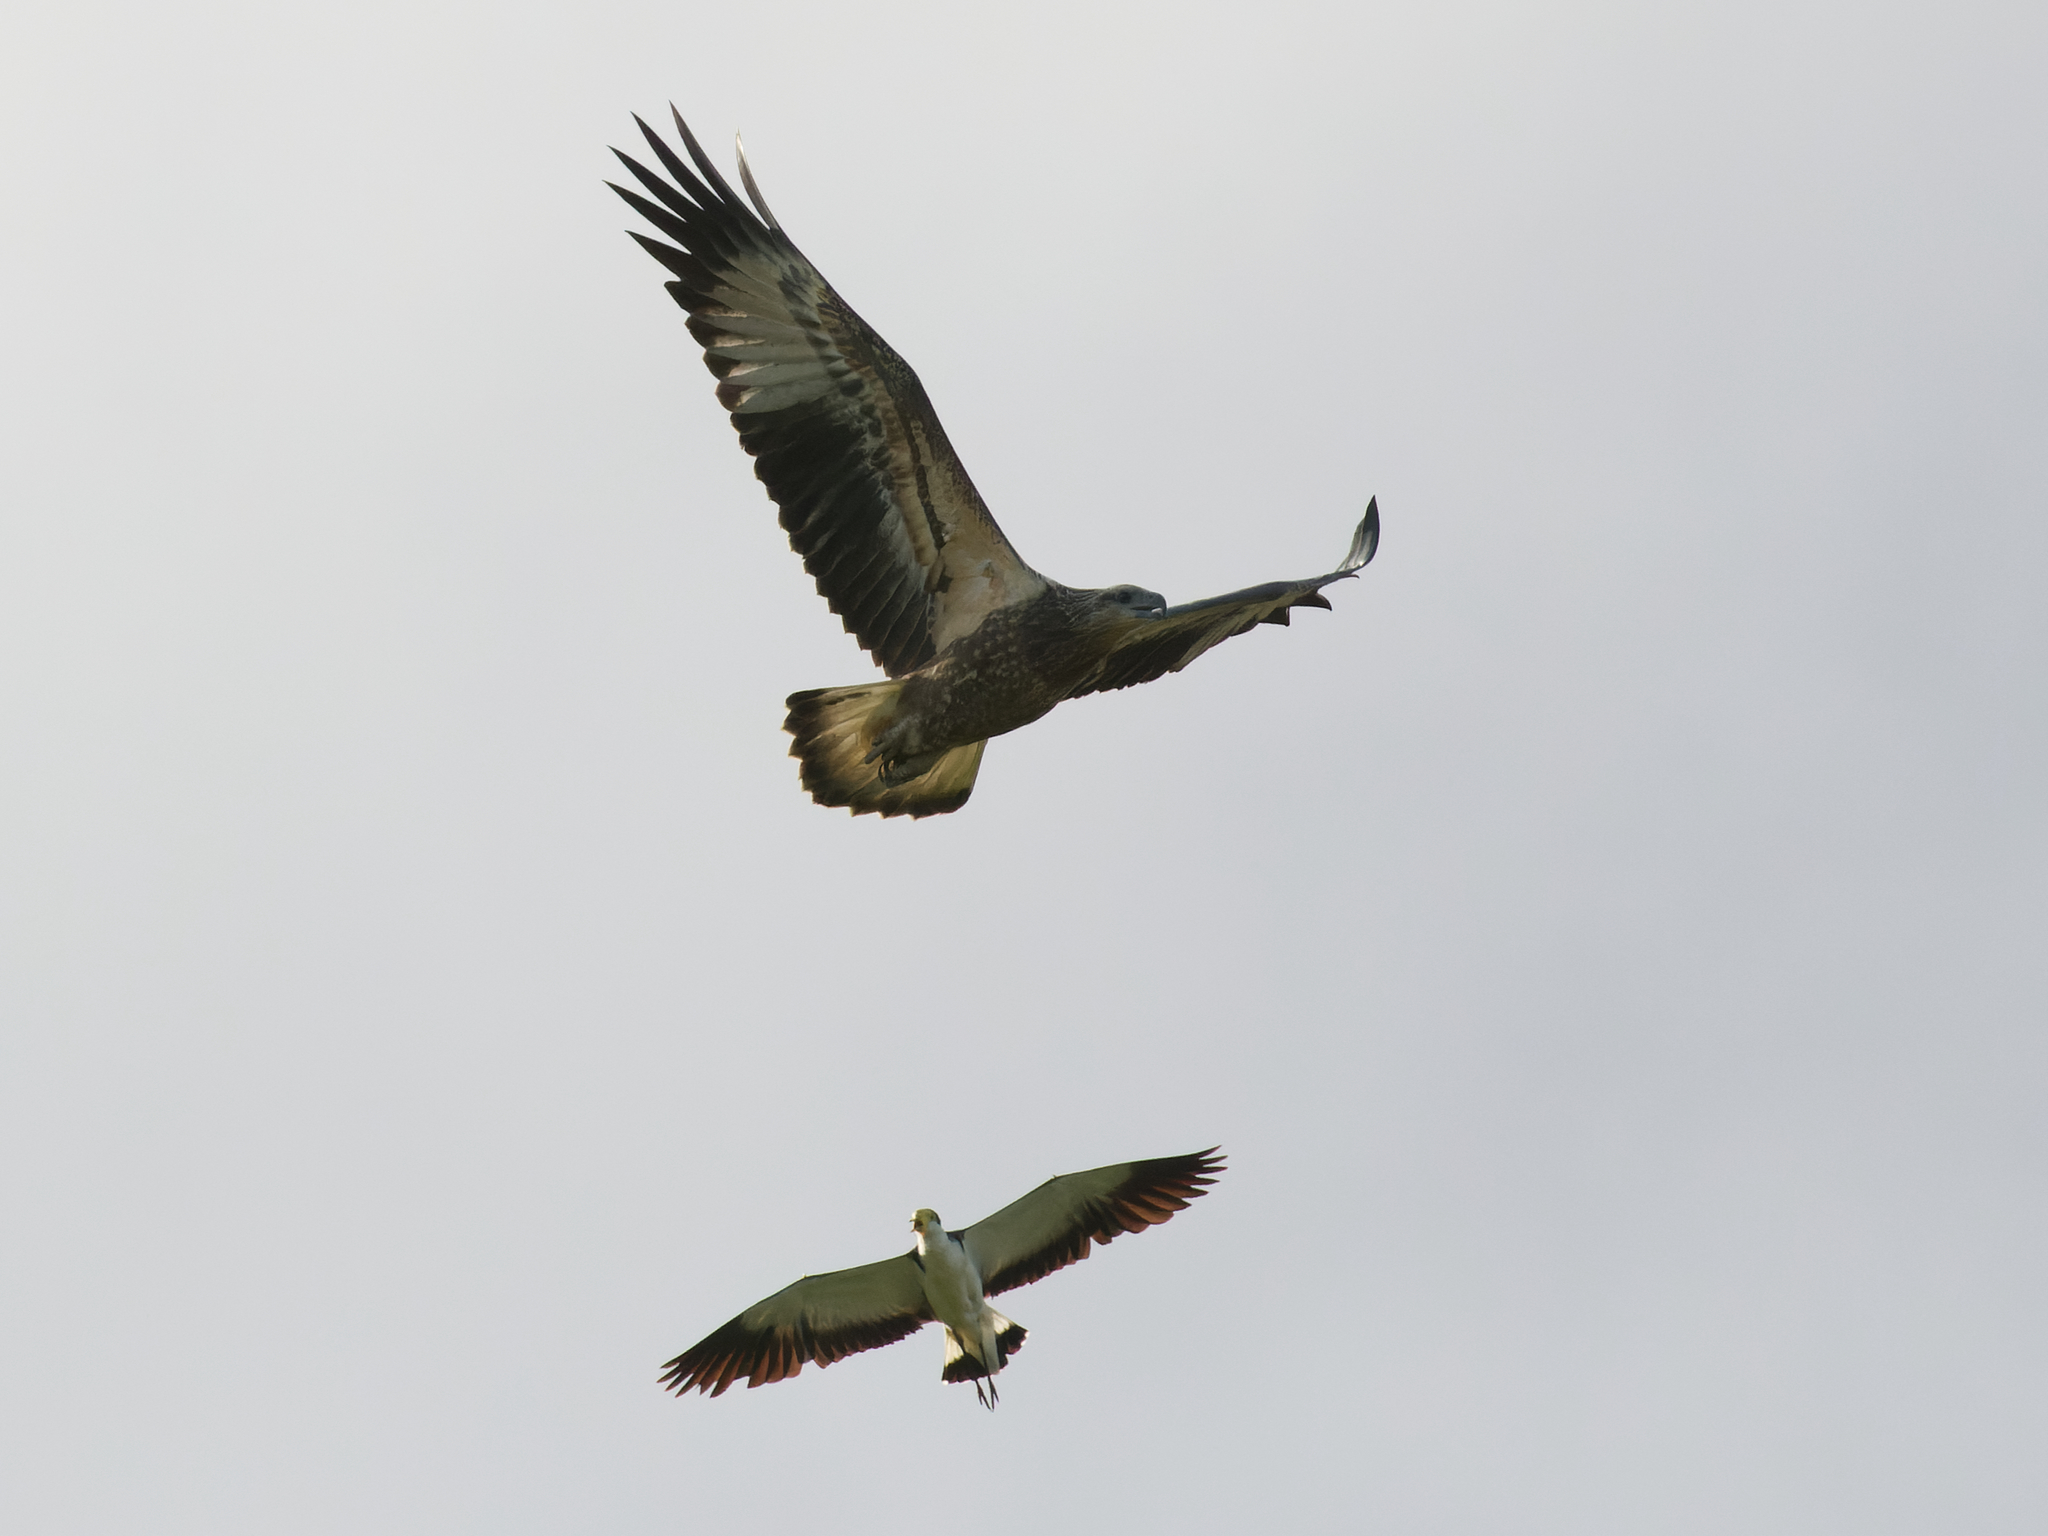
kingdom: Animalia
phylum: Chordata
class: Aves
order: Accipitriformes
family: Accipitridae
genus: Haliaeetus
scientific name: Haliaeetus leucogaster
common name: White-bellied sea eagle
